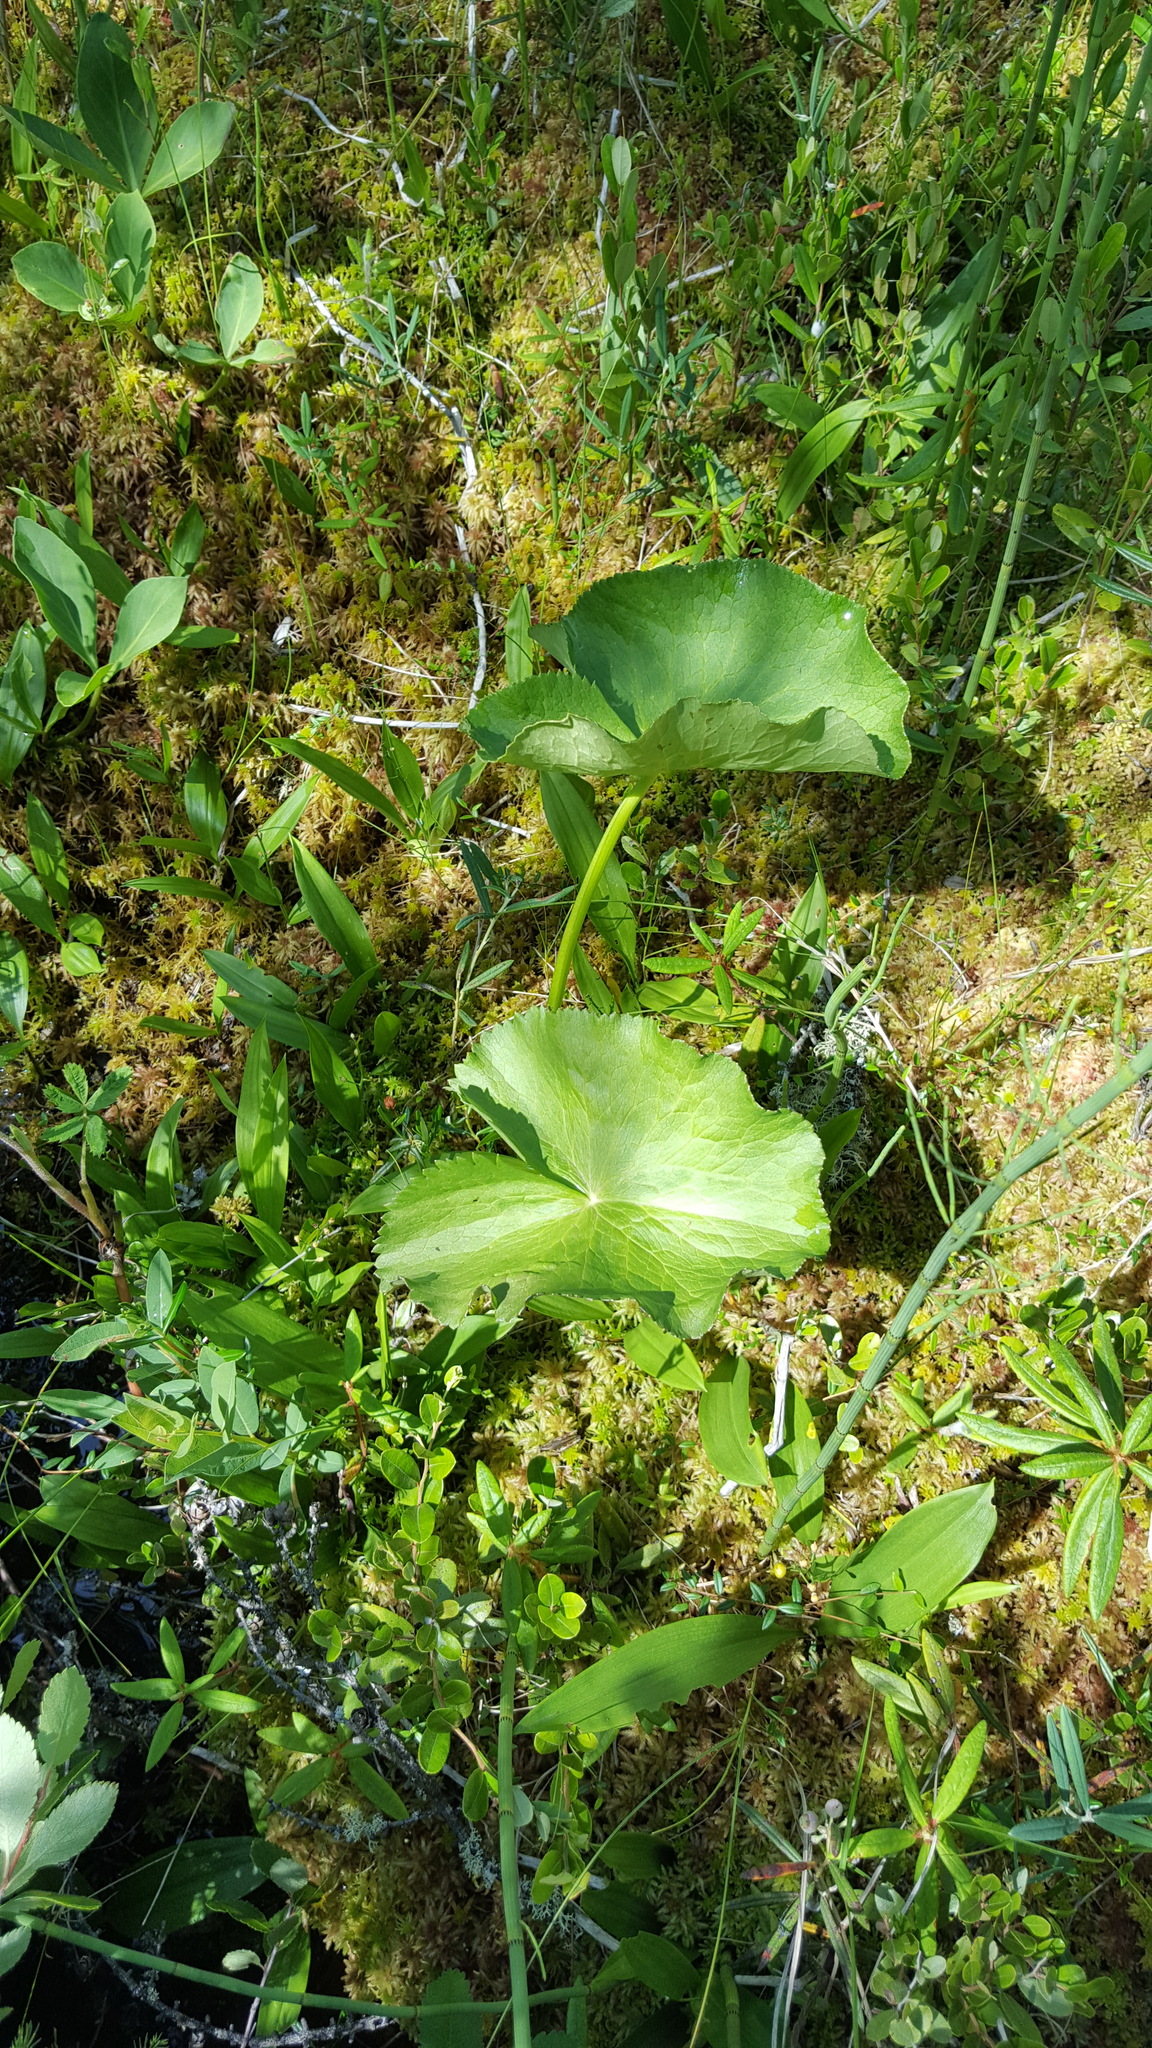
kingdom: Plantae
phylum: Tracheophyta
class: Magnoliopsida
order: Ranunculales
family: Ranunculaceae
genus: Caltha
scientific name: Caltha palustris
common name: Marsh marigold
